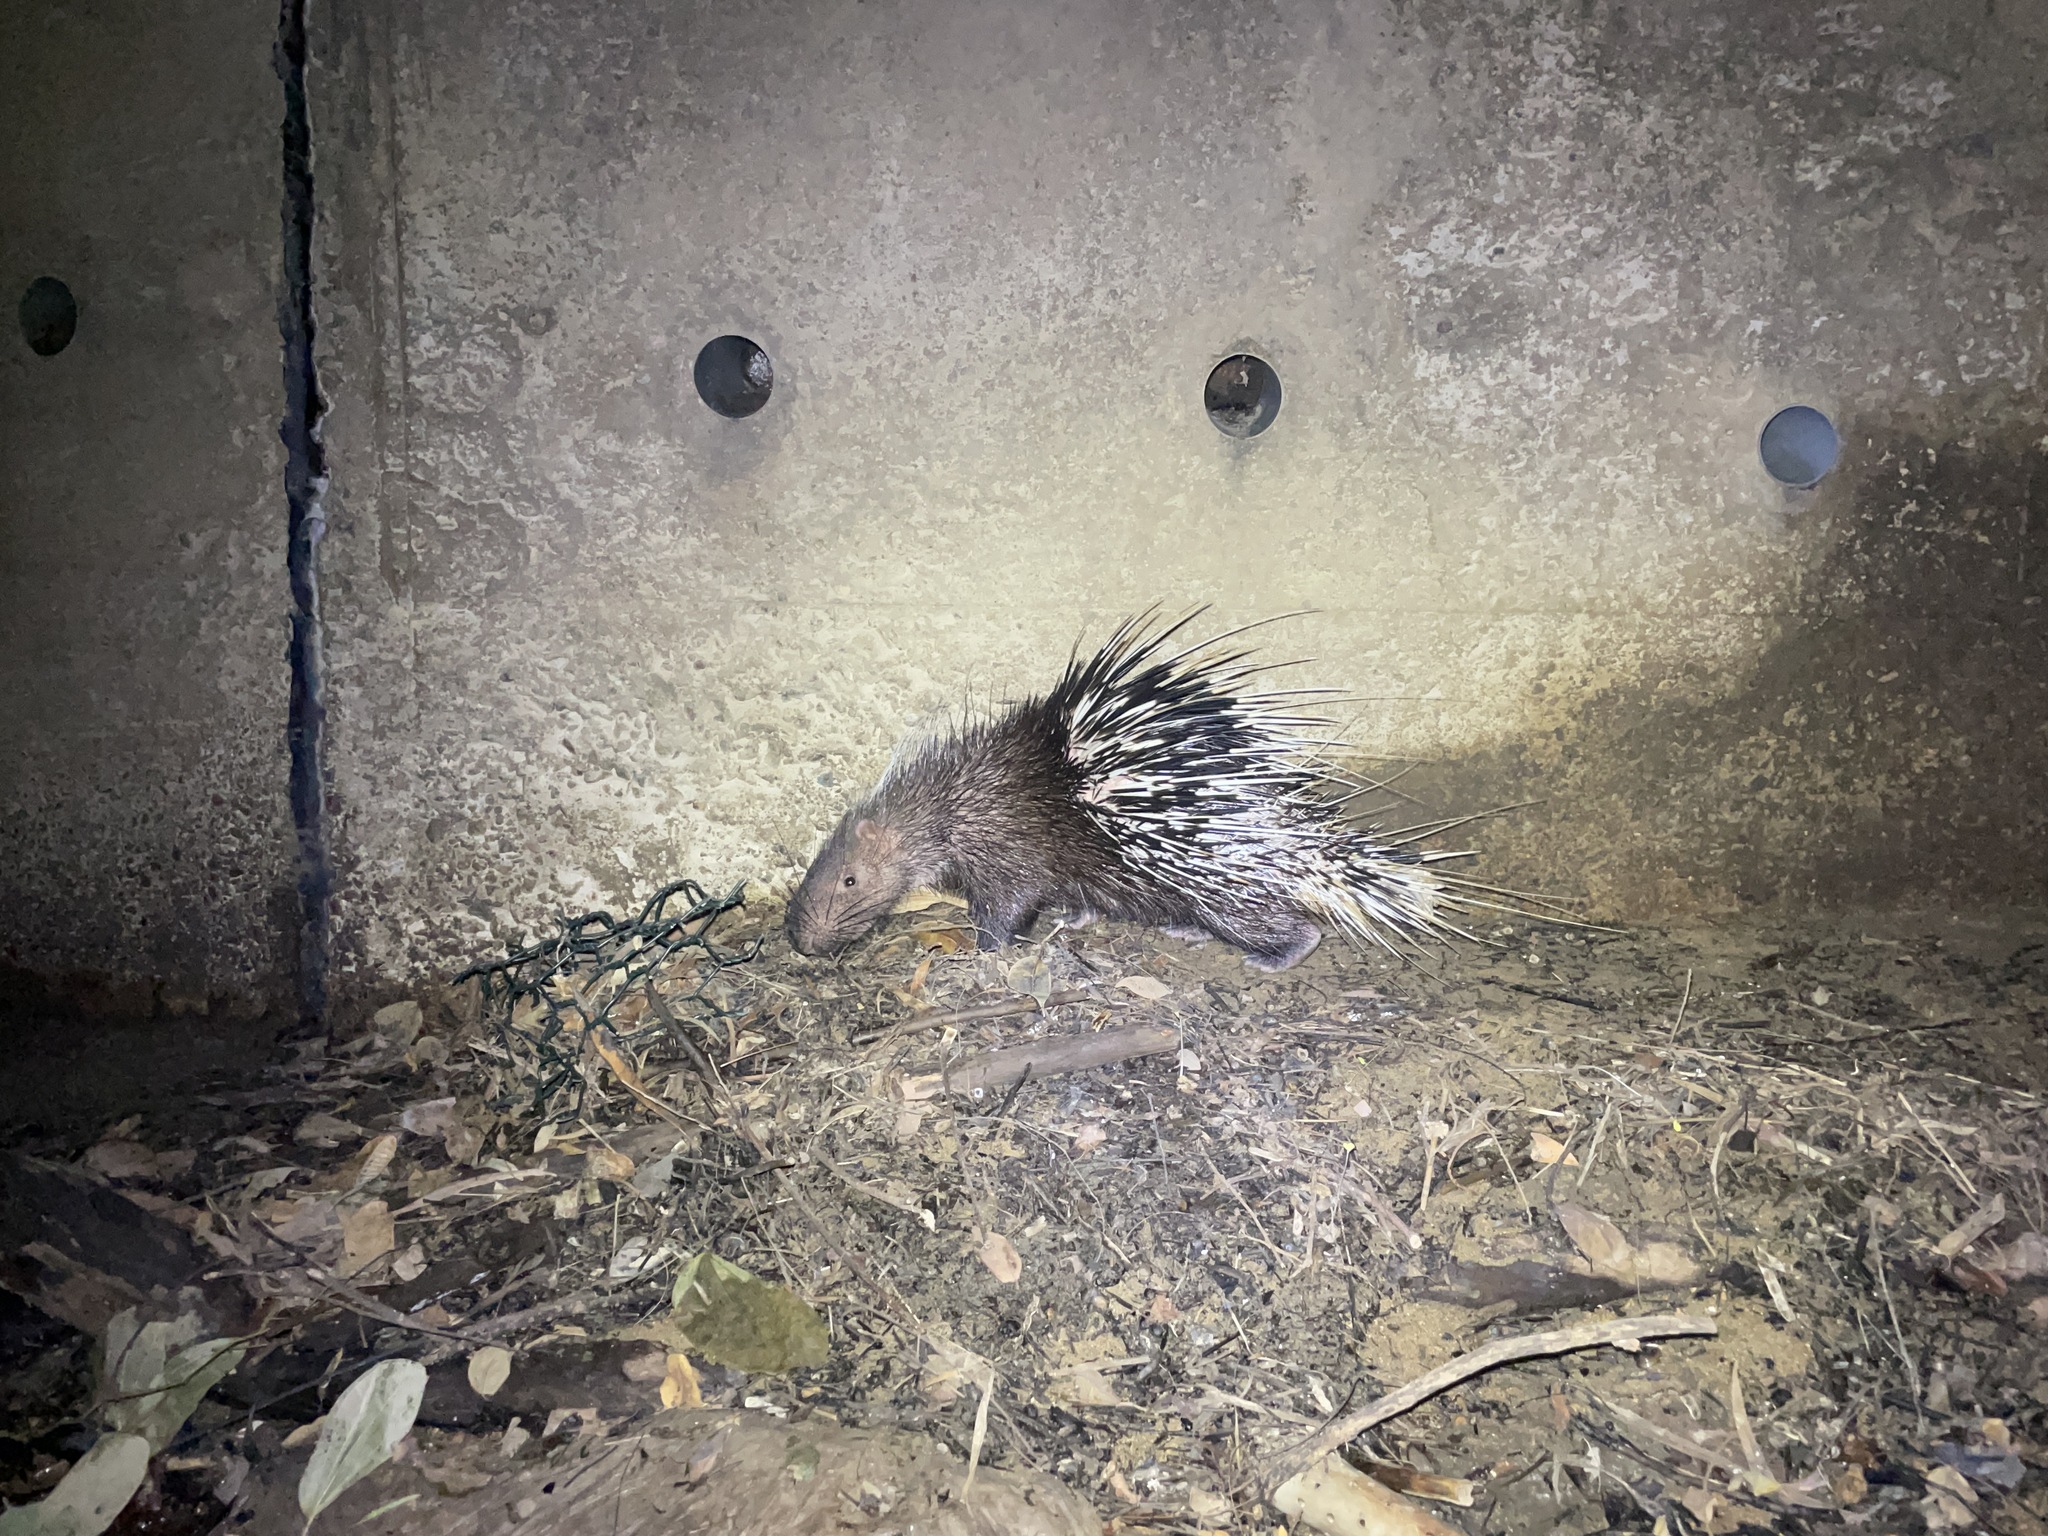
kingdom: Animalia
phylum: Chordata
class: Mammalia
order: Rodentia
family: Hystricidae
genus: Hystrix
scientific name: Hystrix brachyura
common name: Malayan porcupine
